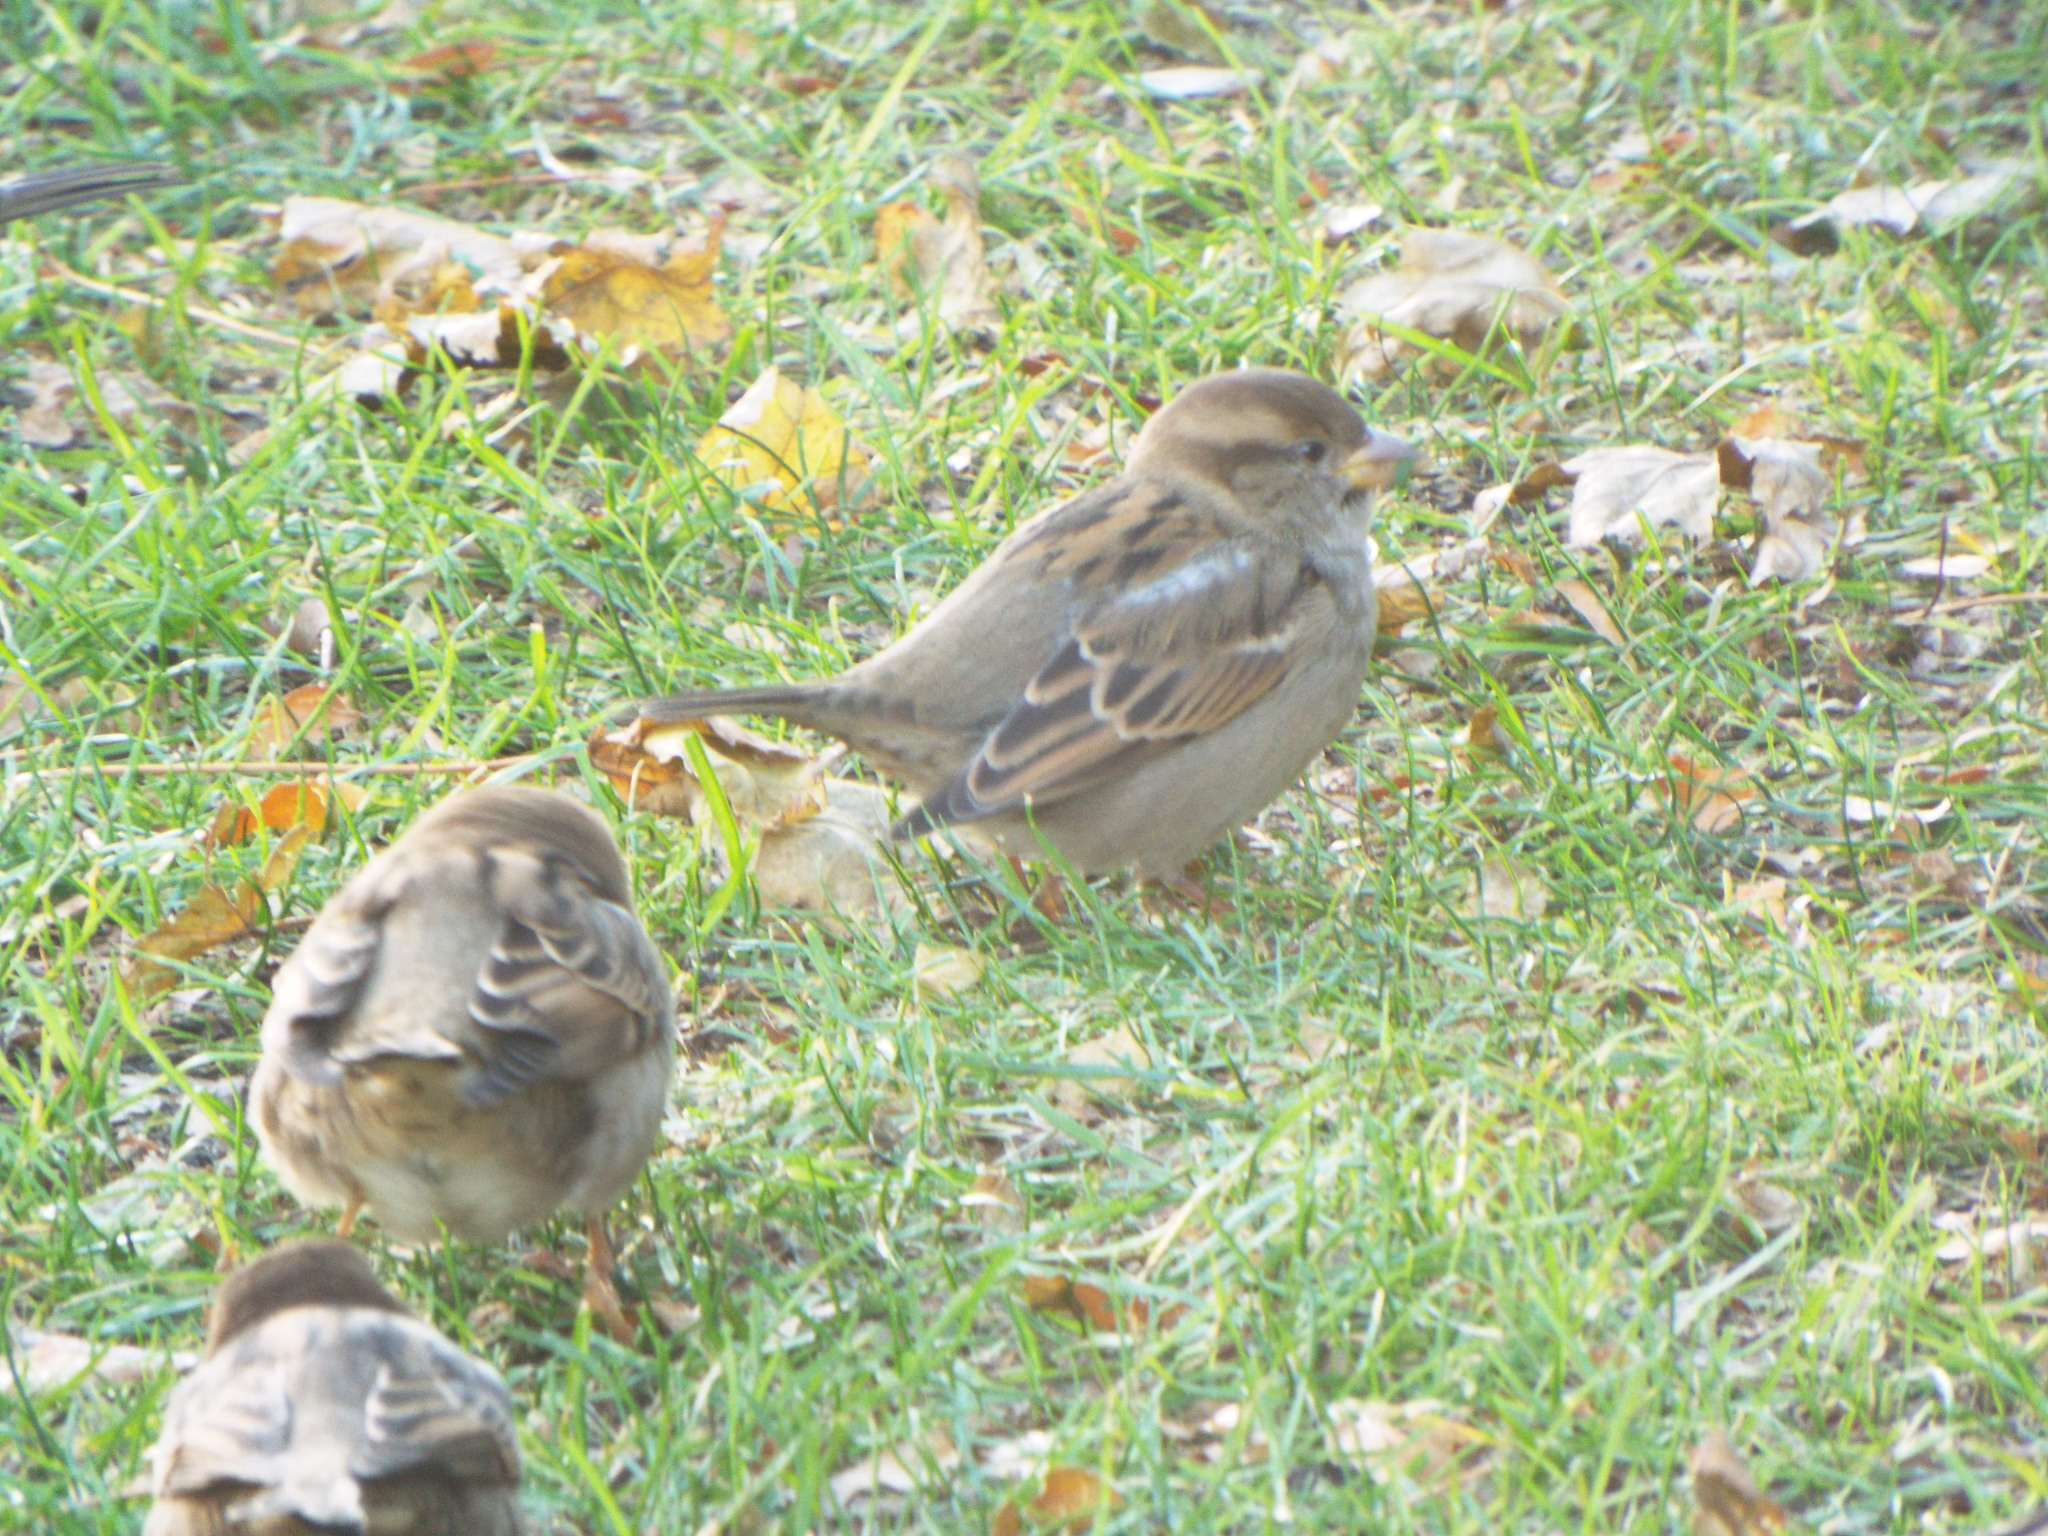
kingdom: Animalia
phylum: Chordata
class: Aves
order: Passeriformes
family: Passeridae
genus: Passer
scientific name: Passer domesticus
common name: House sparrow
